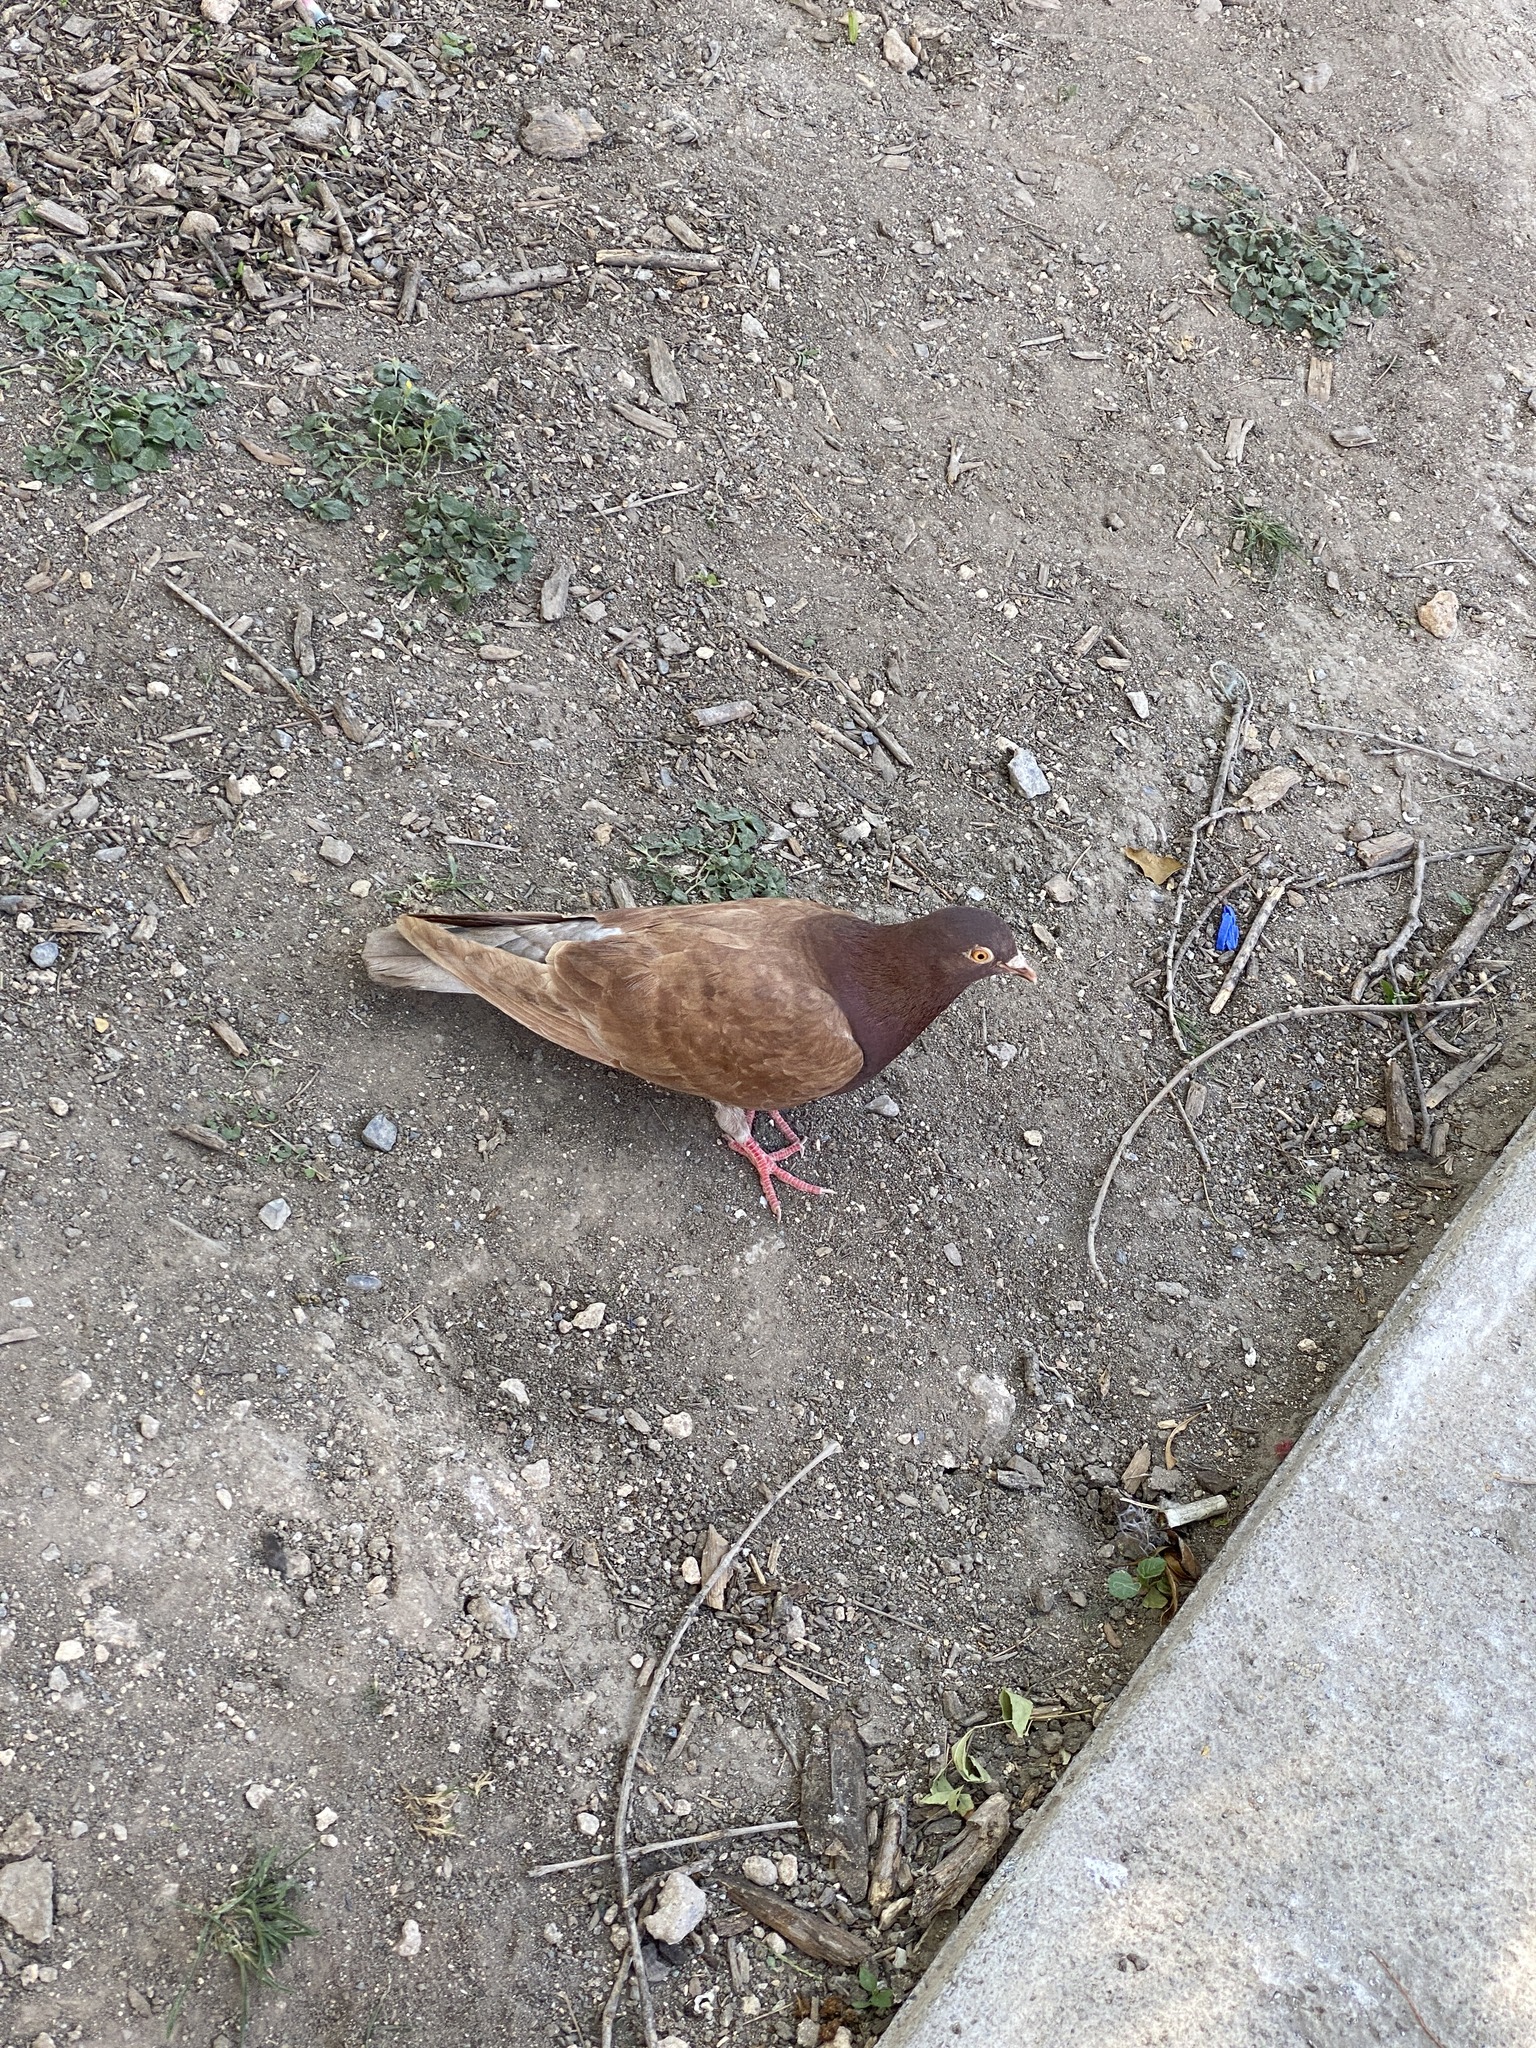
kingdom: Animalia
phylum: Chordata
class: Aves
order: Columbiformes
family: Columbidae
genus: Columba
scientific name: Columba livia
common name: Rock pigeon
